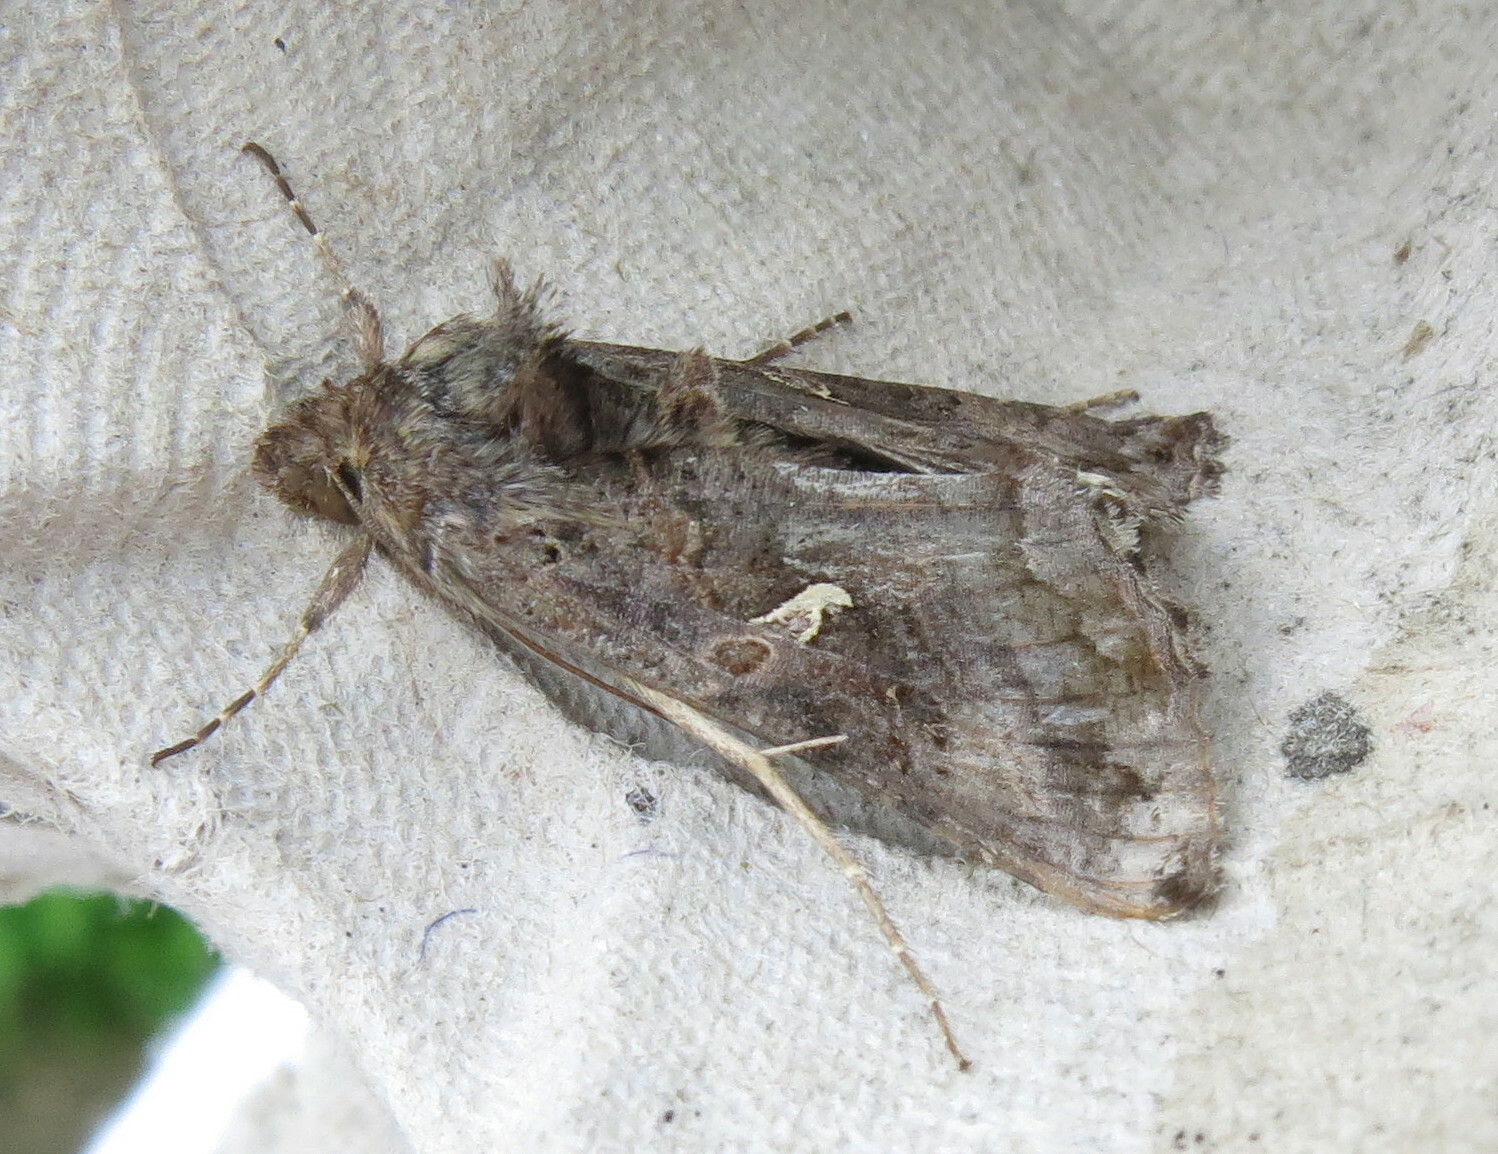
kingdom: Animalia
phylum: Arthropoda
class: Insecta
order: Lepidoptera
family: Noctuidae
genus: Autographa
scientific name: Autographa gamma
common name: Silver y
